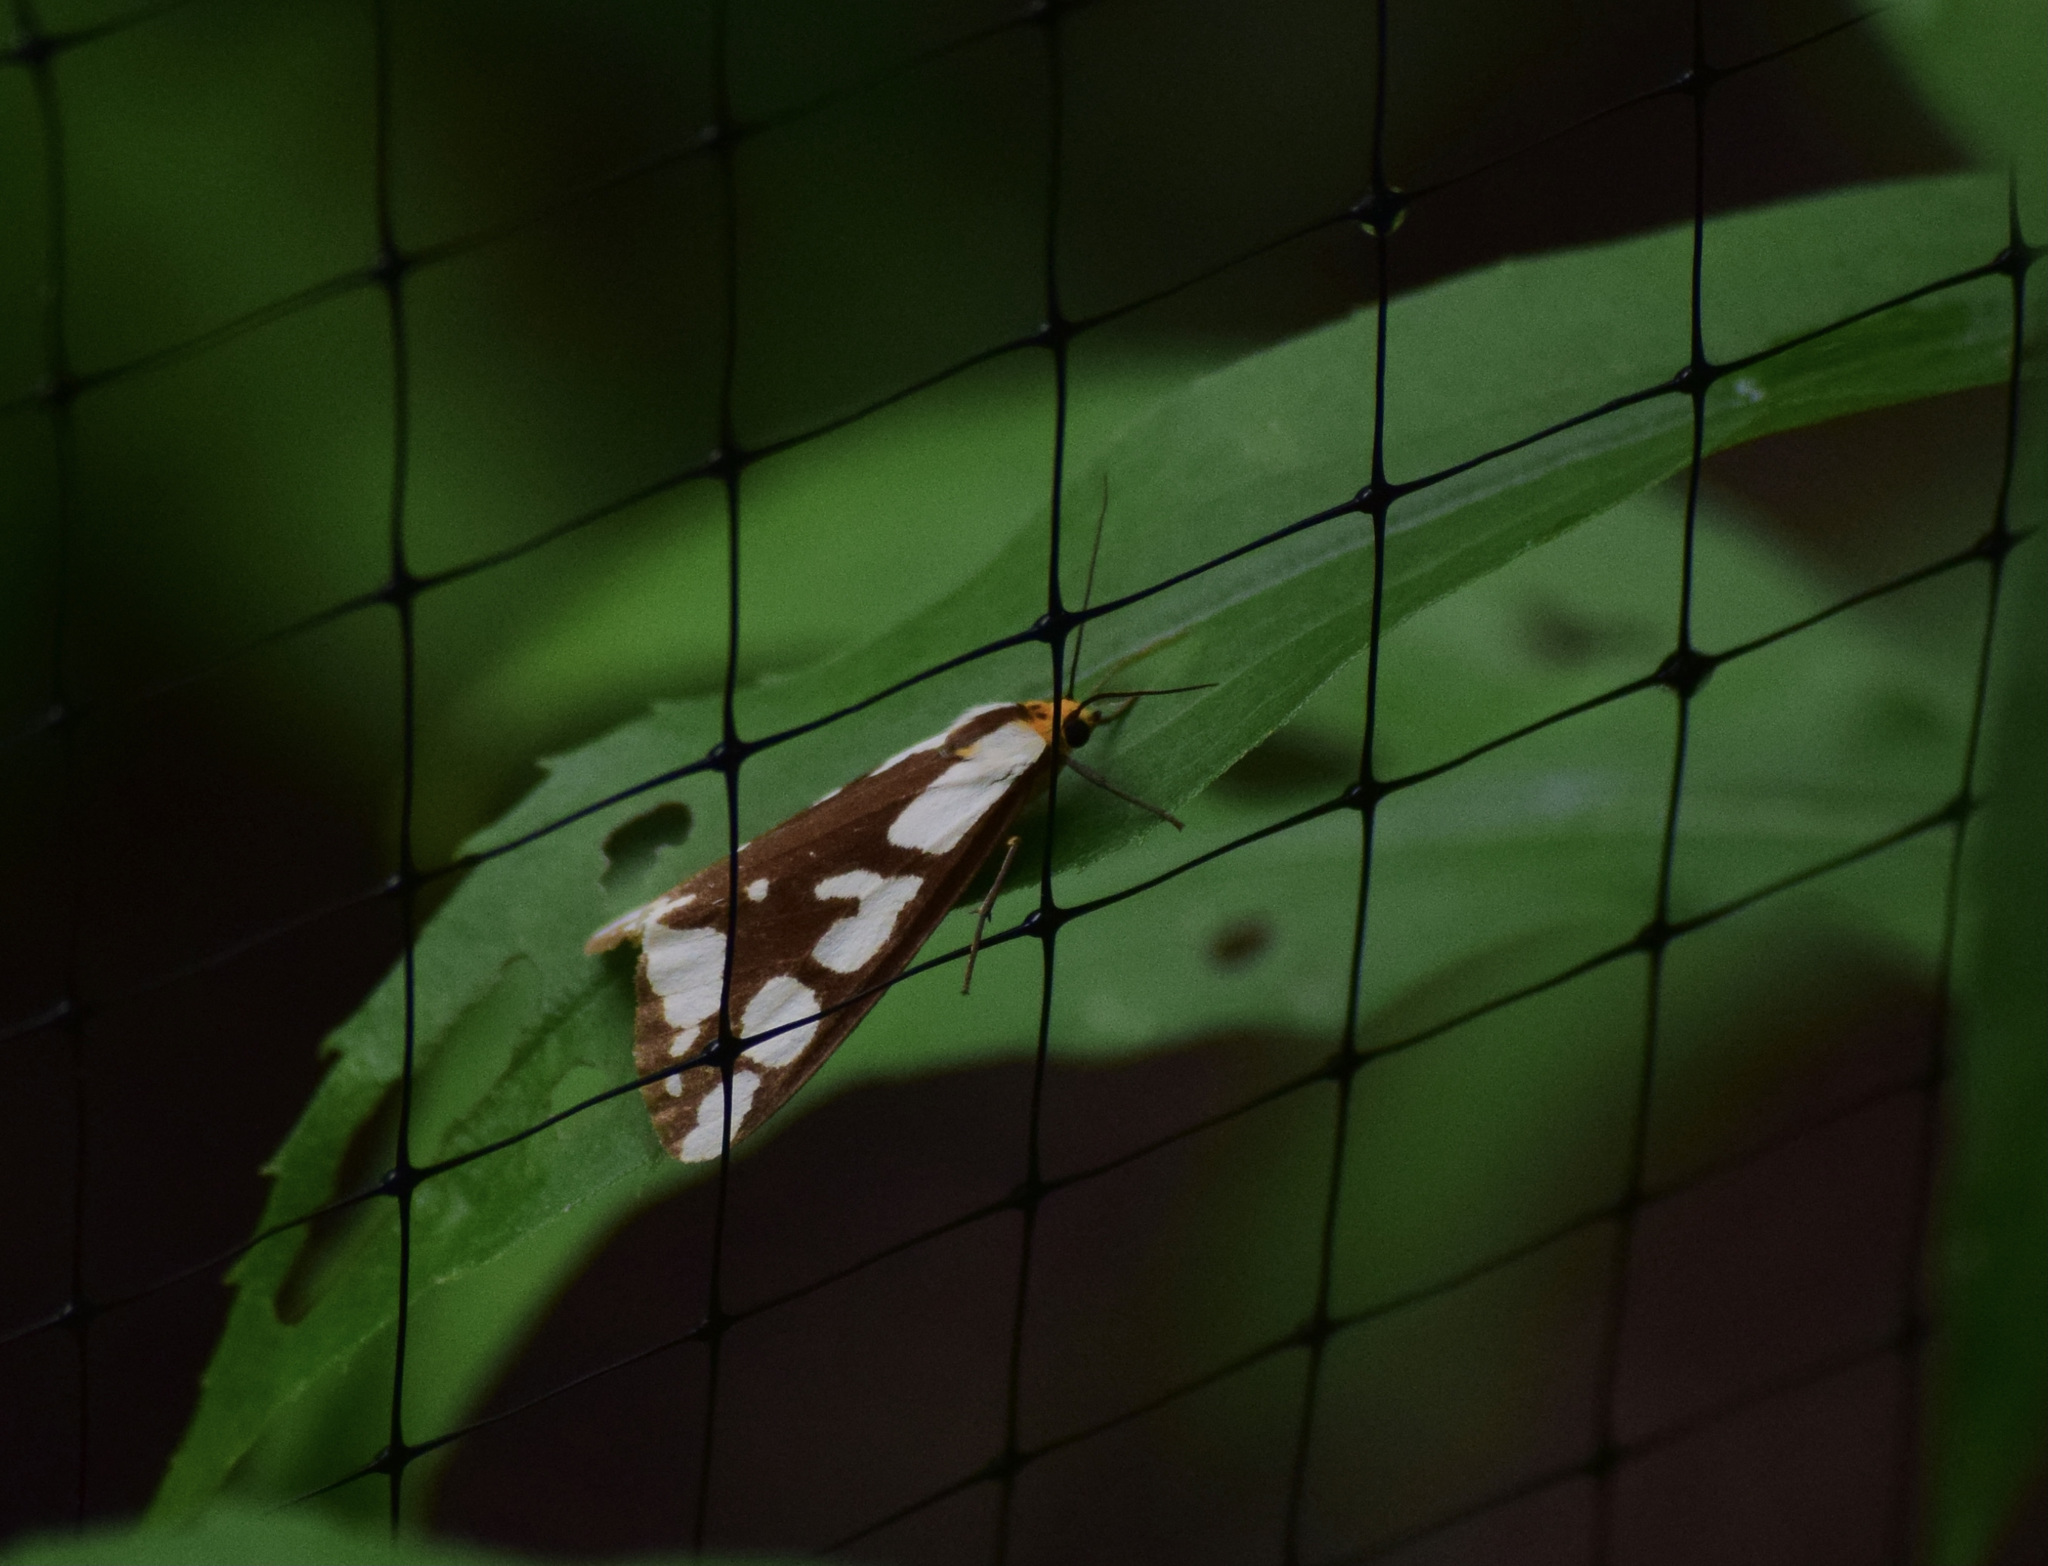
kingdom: Animalia
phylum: Arthropoda
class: Insecta
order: Lepidoptera
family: Erebidae
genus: Haploa
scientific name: Haploa confusa
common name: Confused haploa moth
